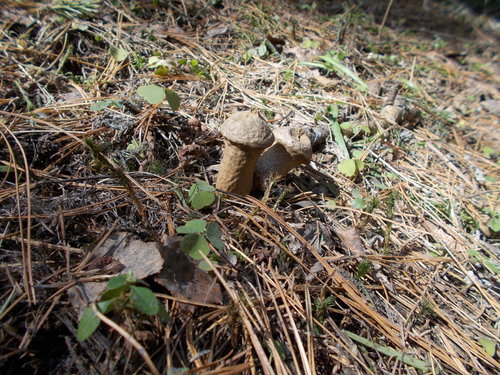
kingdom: Fungi
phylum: Basidiomycota
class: Agaricomycetes
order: Agaricales
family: Lycoperdaceae
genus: Lycoperdon
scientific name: Lycoperdon perlatum
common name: Common puffball
